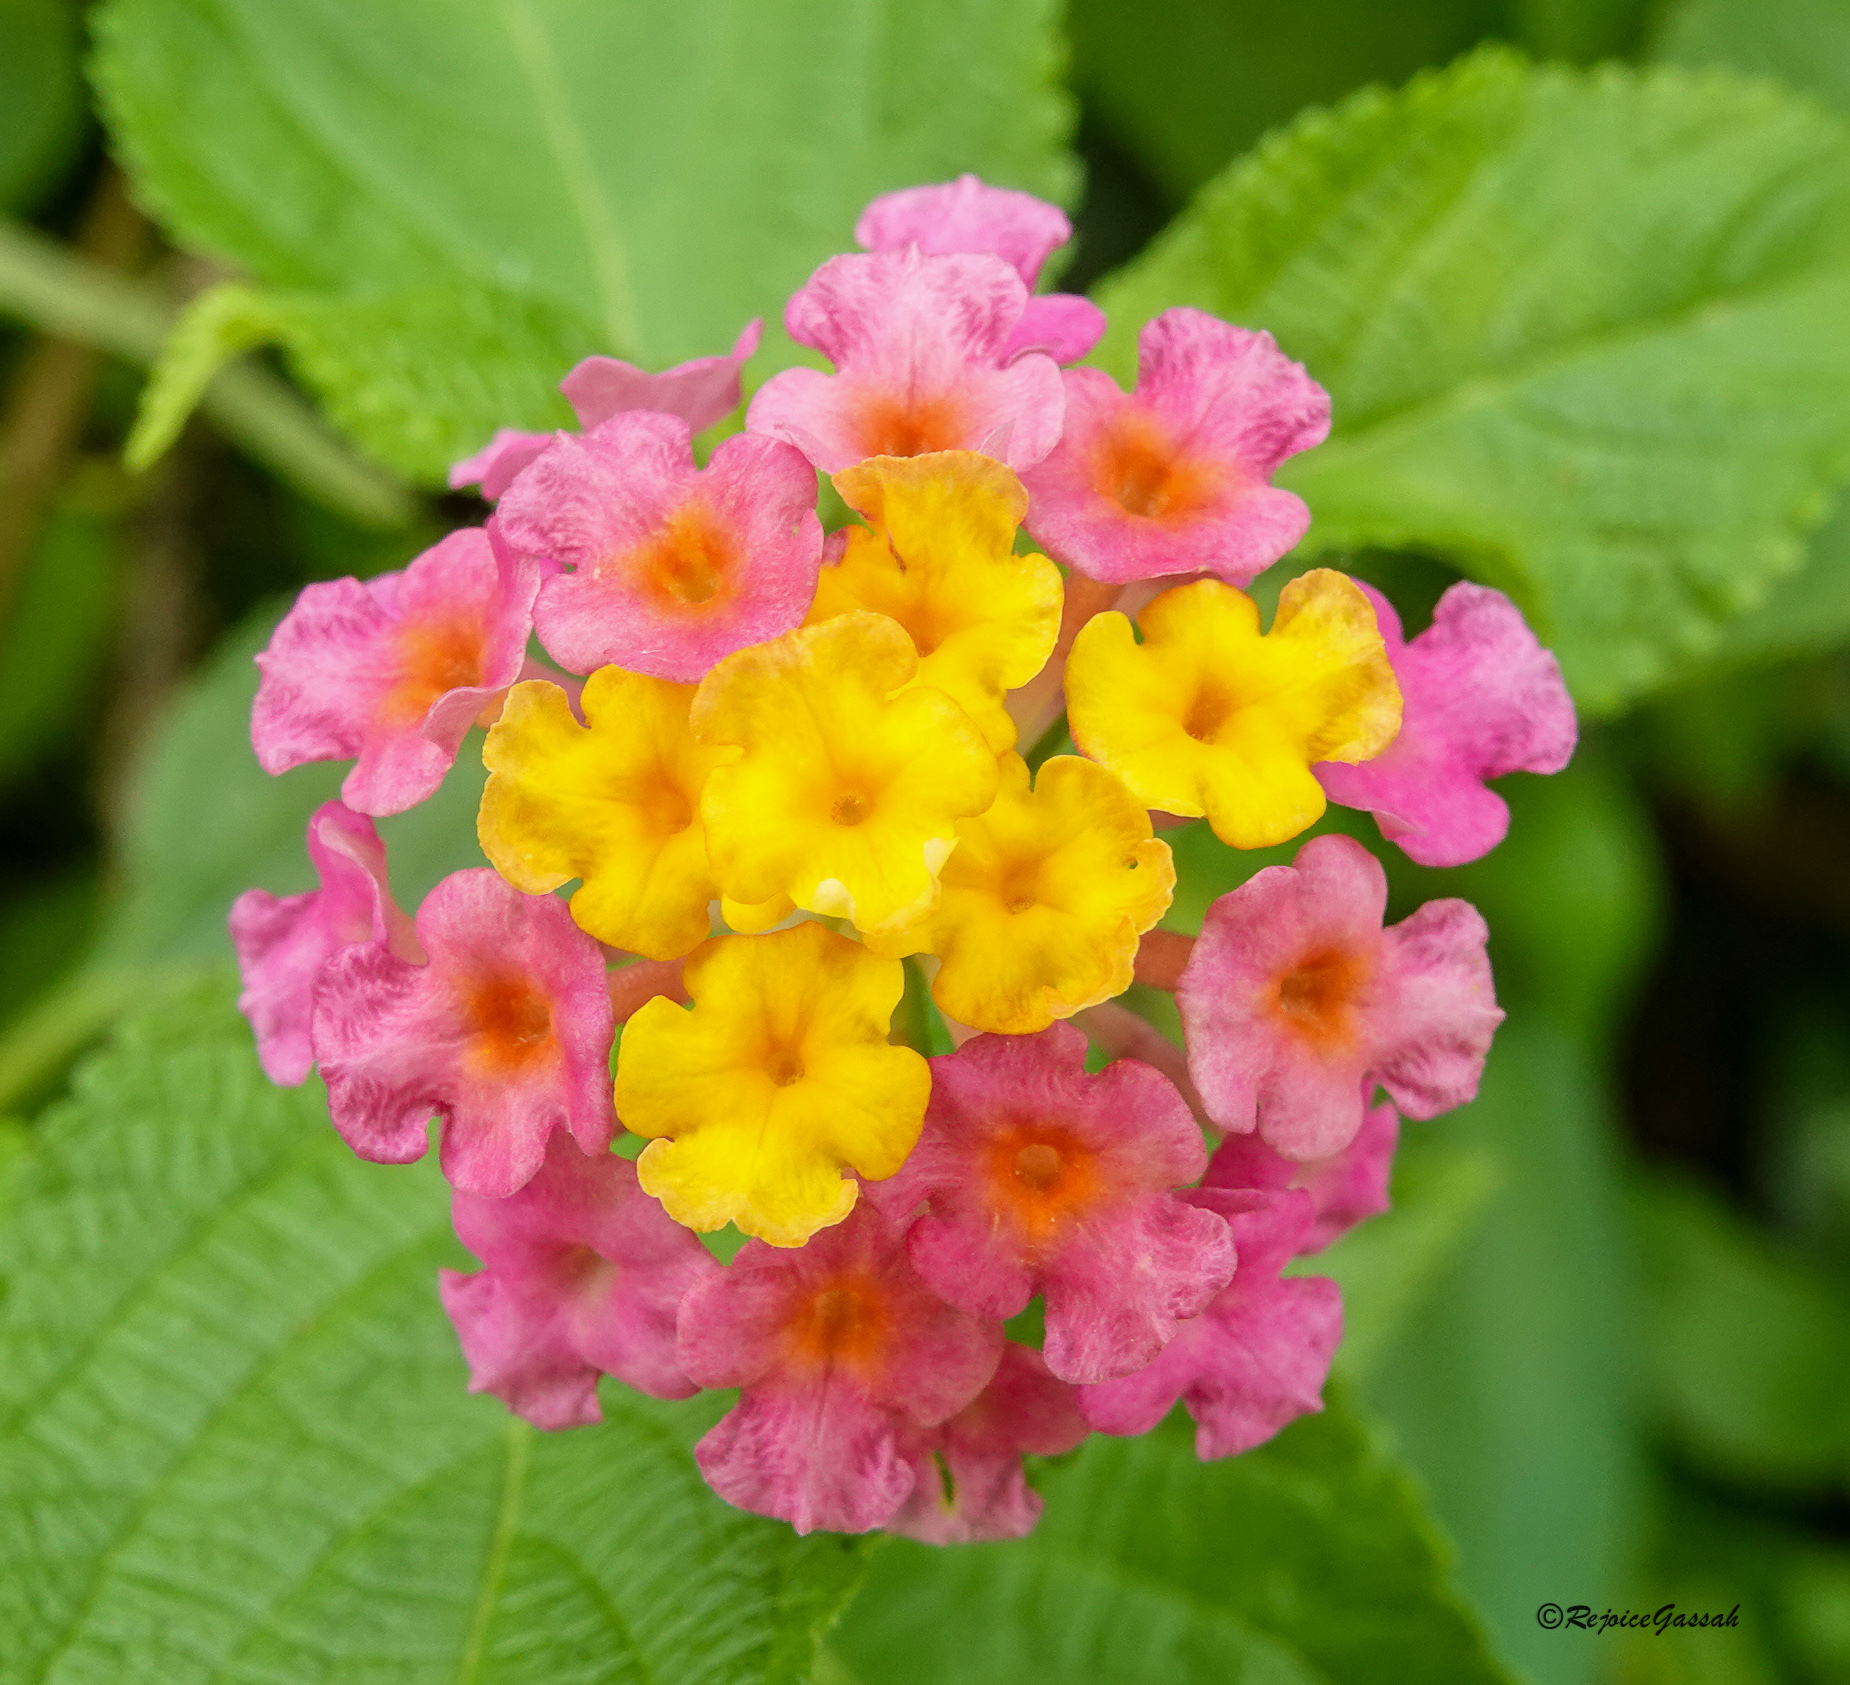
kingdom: Plantae
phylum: Tracheophyta
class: Magnoliopsida
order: Lamiales
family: Verbenaceae
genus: Lantana
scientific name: Lantana camara
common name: Lantana
